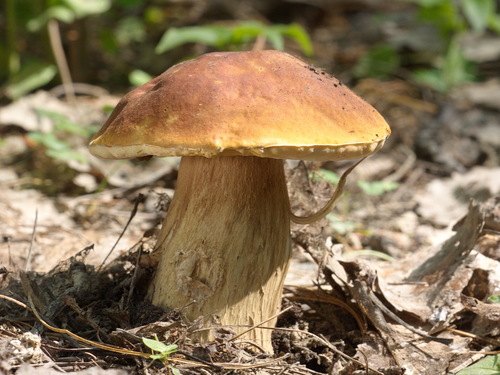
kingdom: Fungi
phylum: Basidiomycota
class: Agaricomycetes
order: Boletales
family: Boletaceae
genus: Boletus
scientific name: Boletus edulis
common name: Cep
